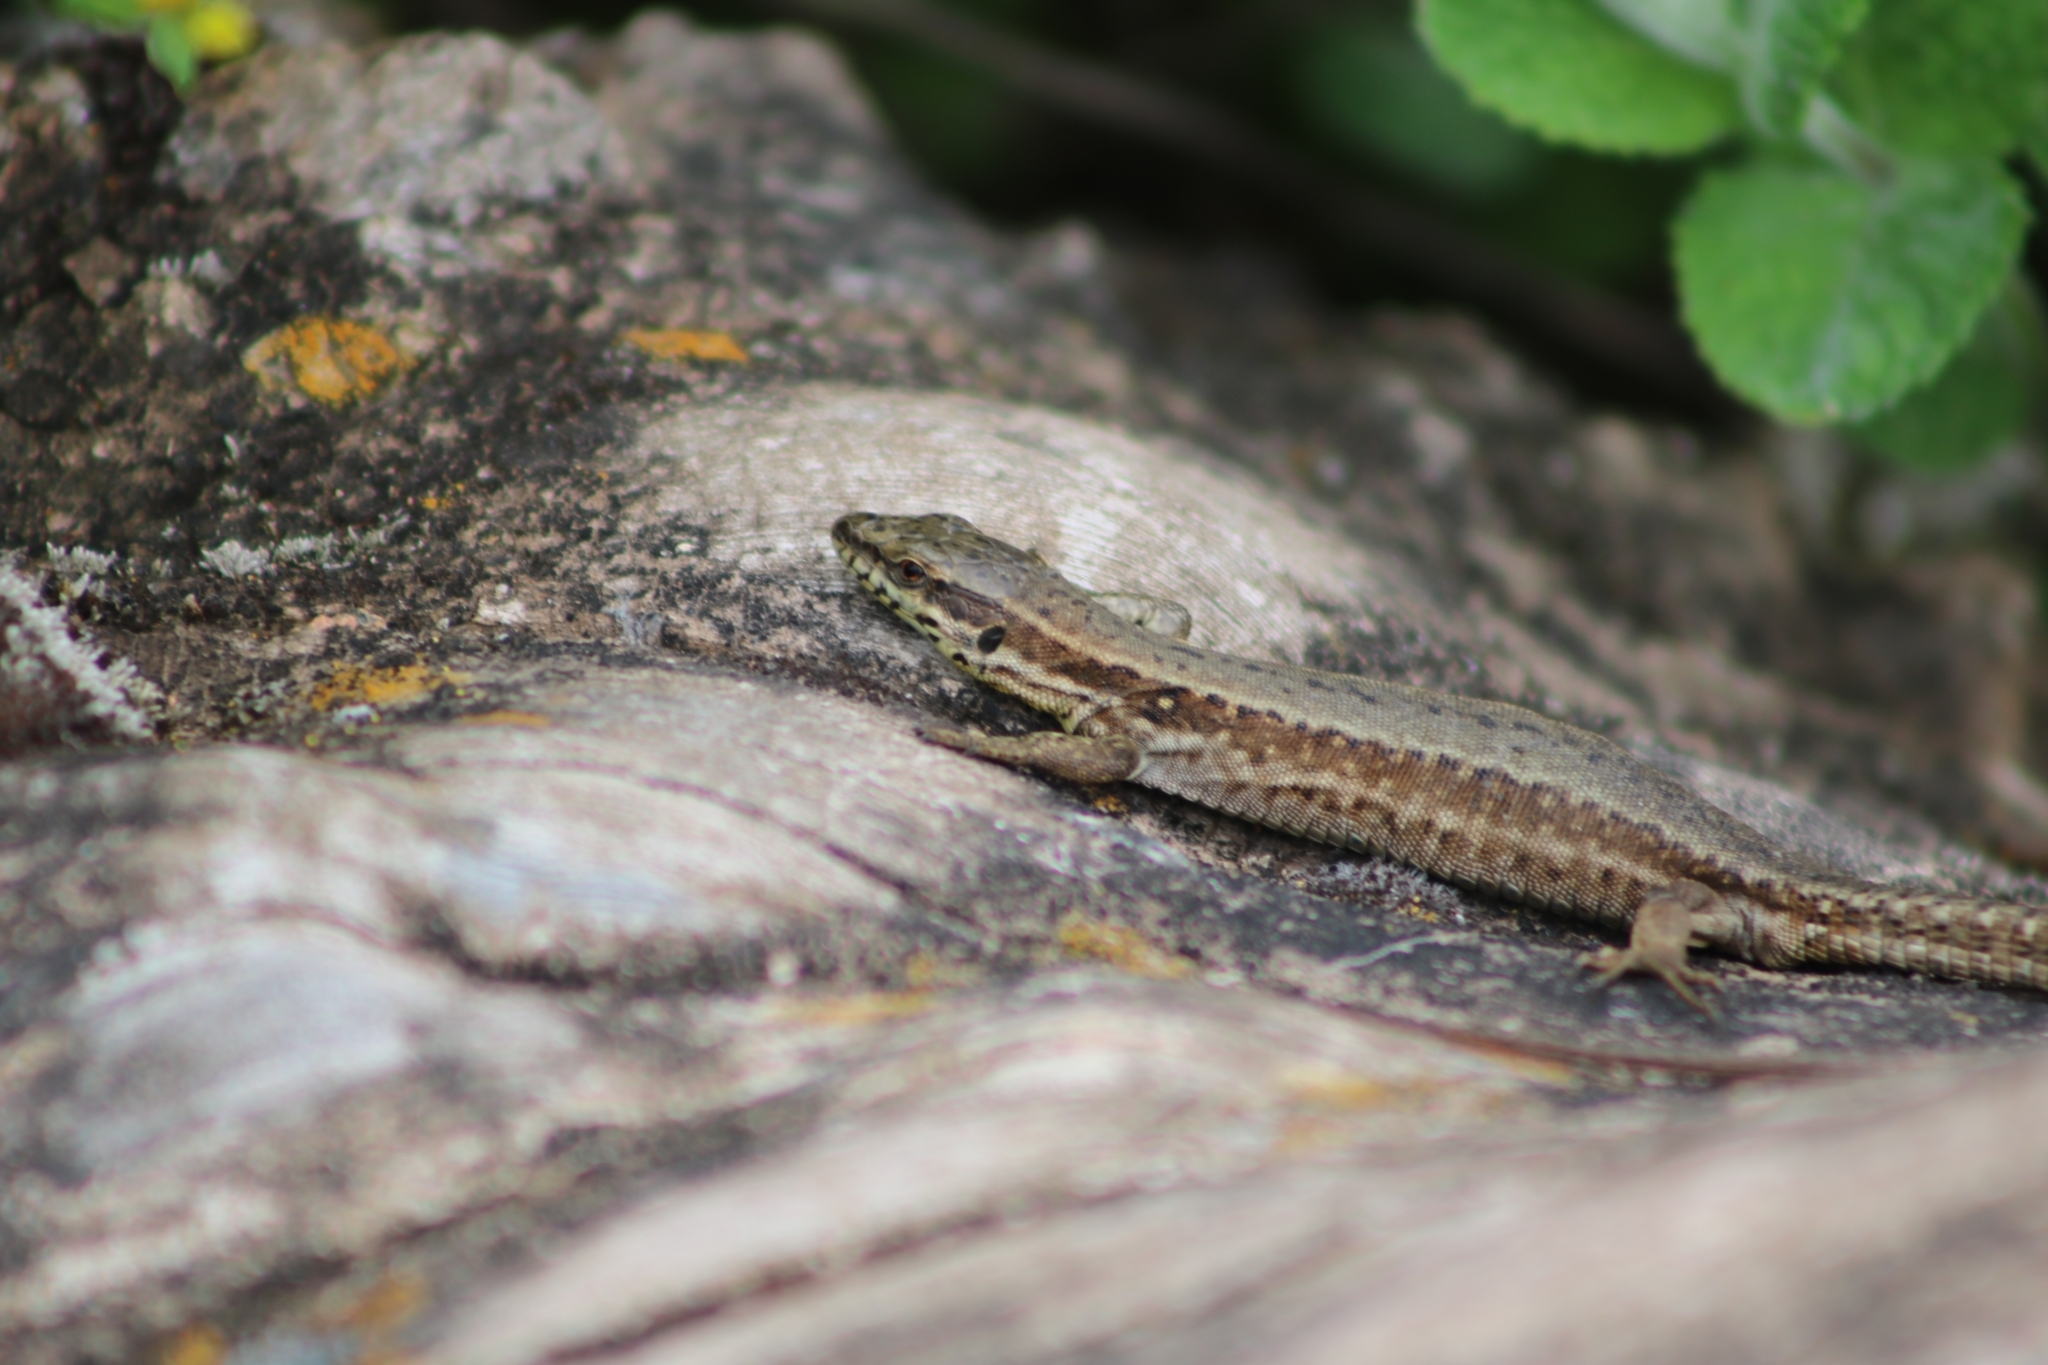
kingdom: Animalia
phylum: Chordata
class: Squamata
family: Lacertidae
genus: Podarcis
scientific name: Podarcis muralis
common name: Common wall lizard
